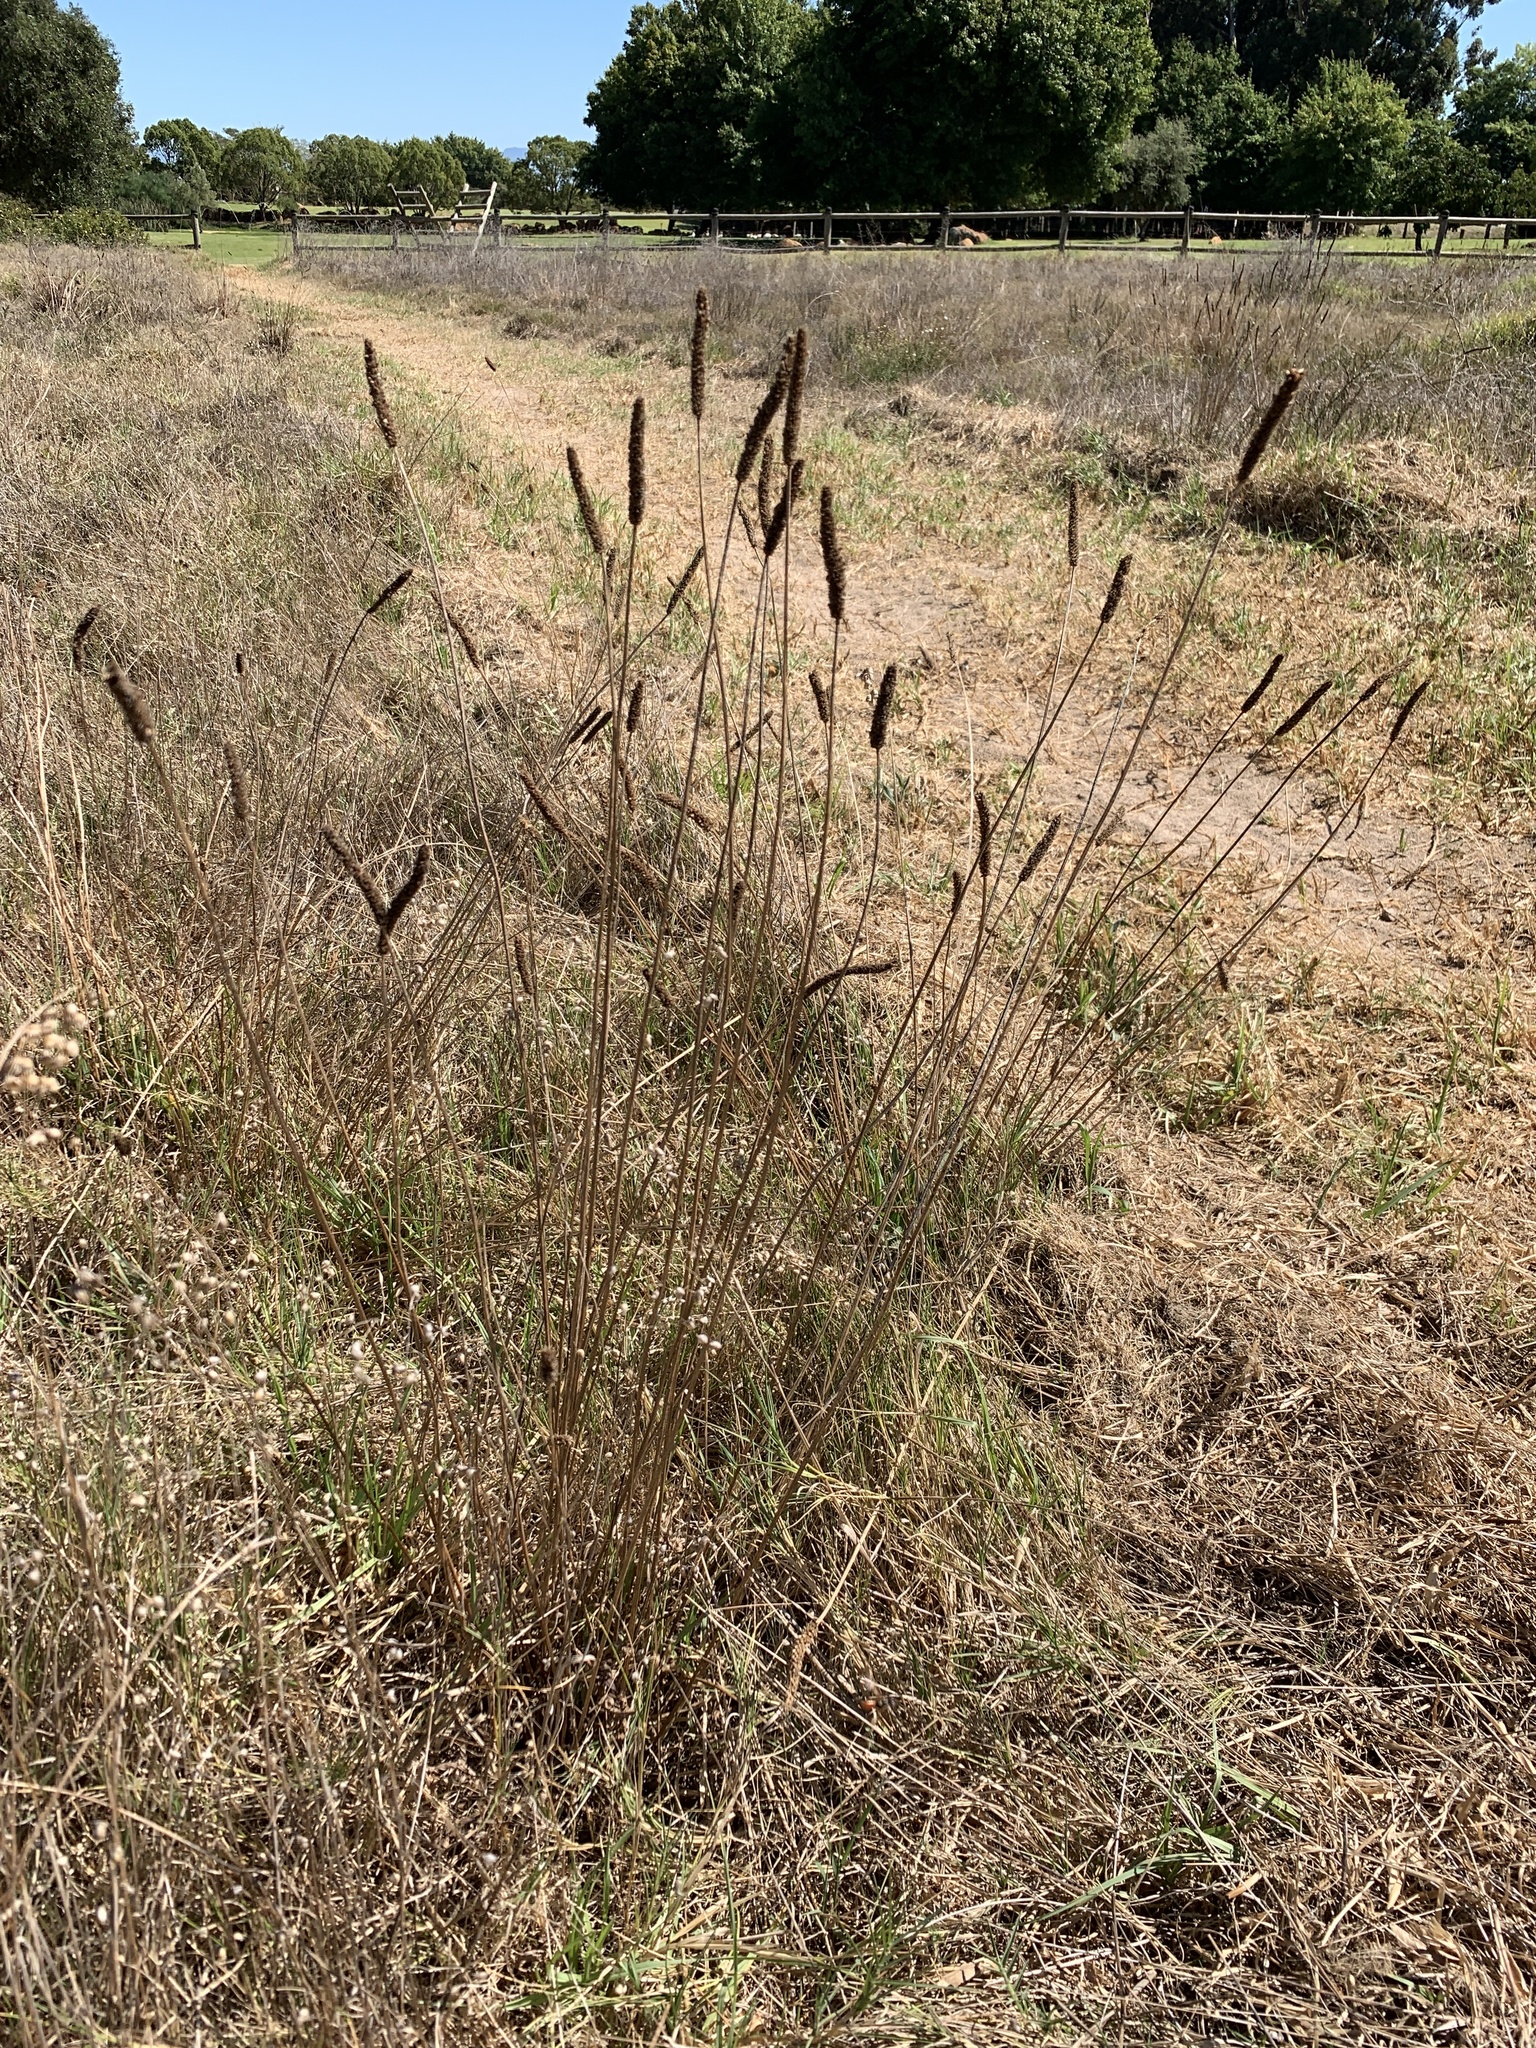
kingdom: Plantae
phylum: Tracheophyta
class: Magnoliopsida
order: Lamiales
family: Plantaginaceae
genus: Plantago
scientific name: Plantago lanceolata
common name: Ribwort plantain
